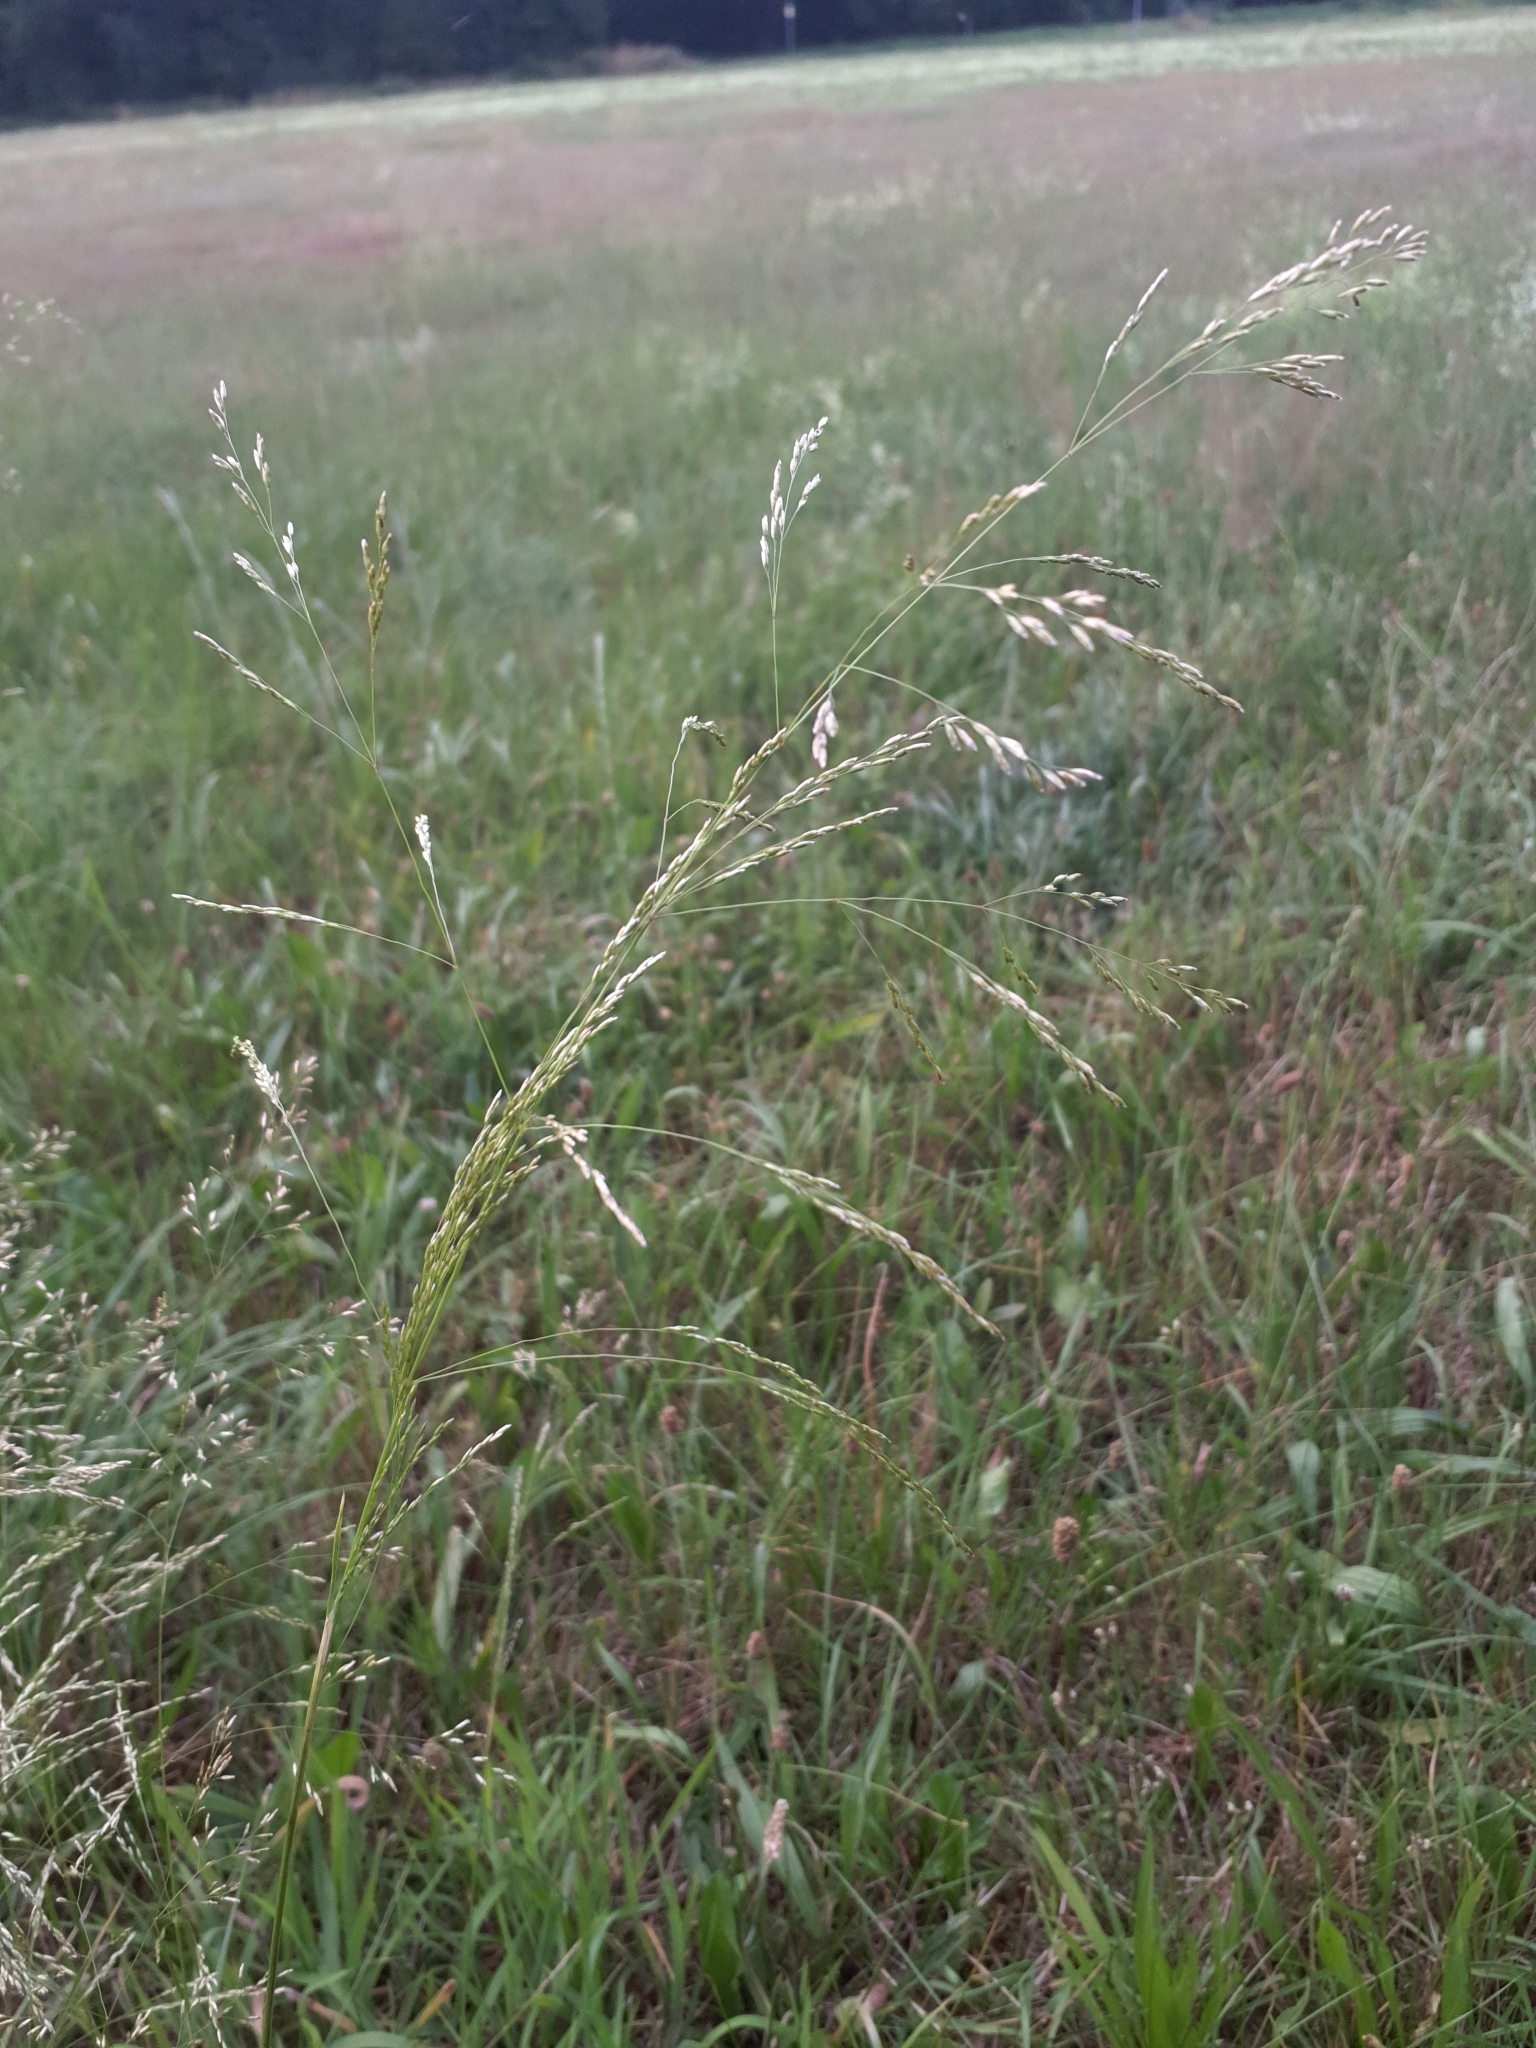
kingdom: Plantae
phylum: Tracheophyta
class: Liliopsida
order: Poales
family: Poaceae
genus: Deschampsia
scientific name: Deschampsia cespitosa
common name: Tufted hair-grass
